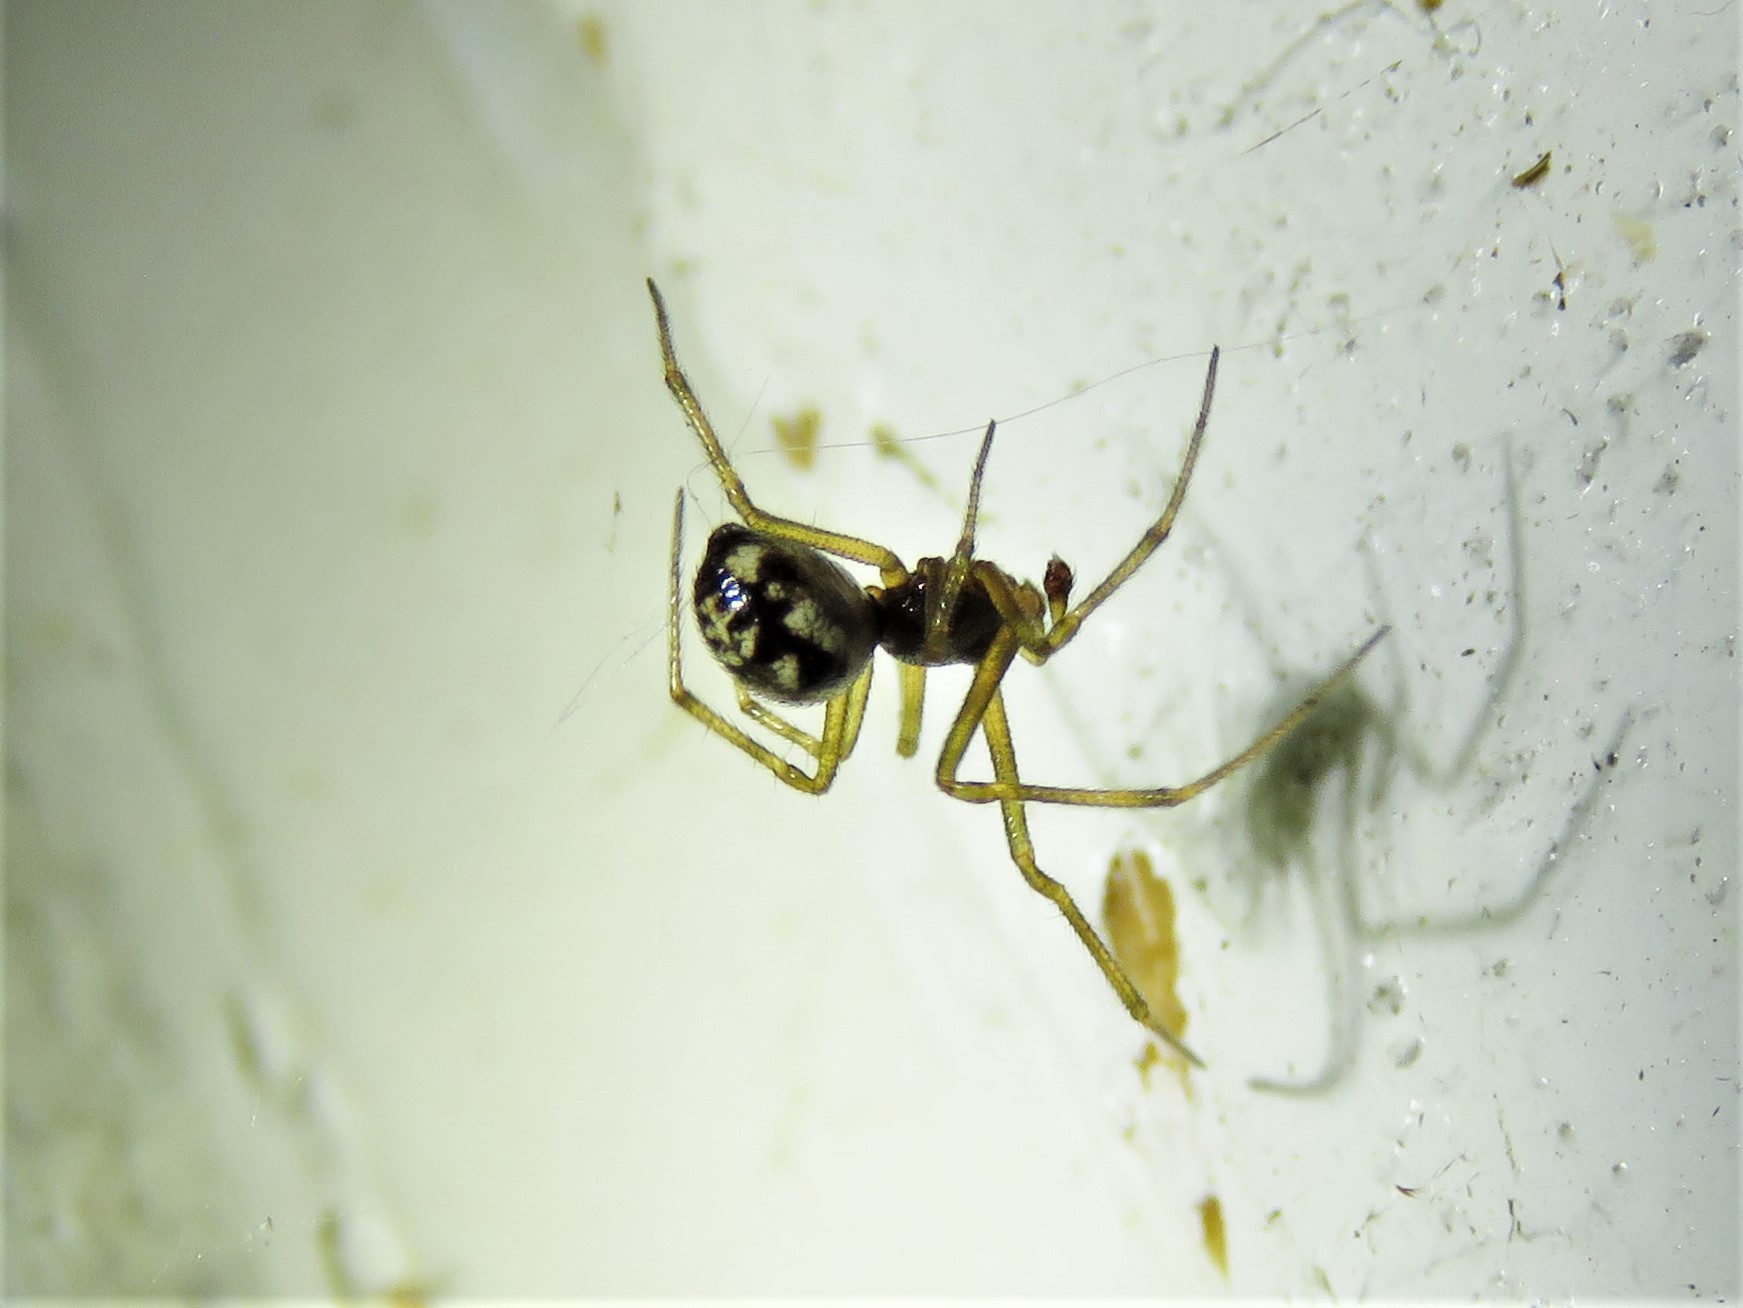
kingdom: Animalia
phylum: Arthropoda
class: Arachnida
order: Araneae
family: Theridiidae
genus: Steatoda
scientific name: Steatoda triangulosa
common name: Triangulate bud spider
